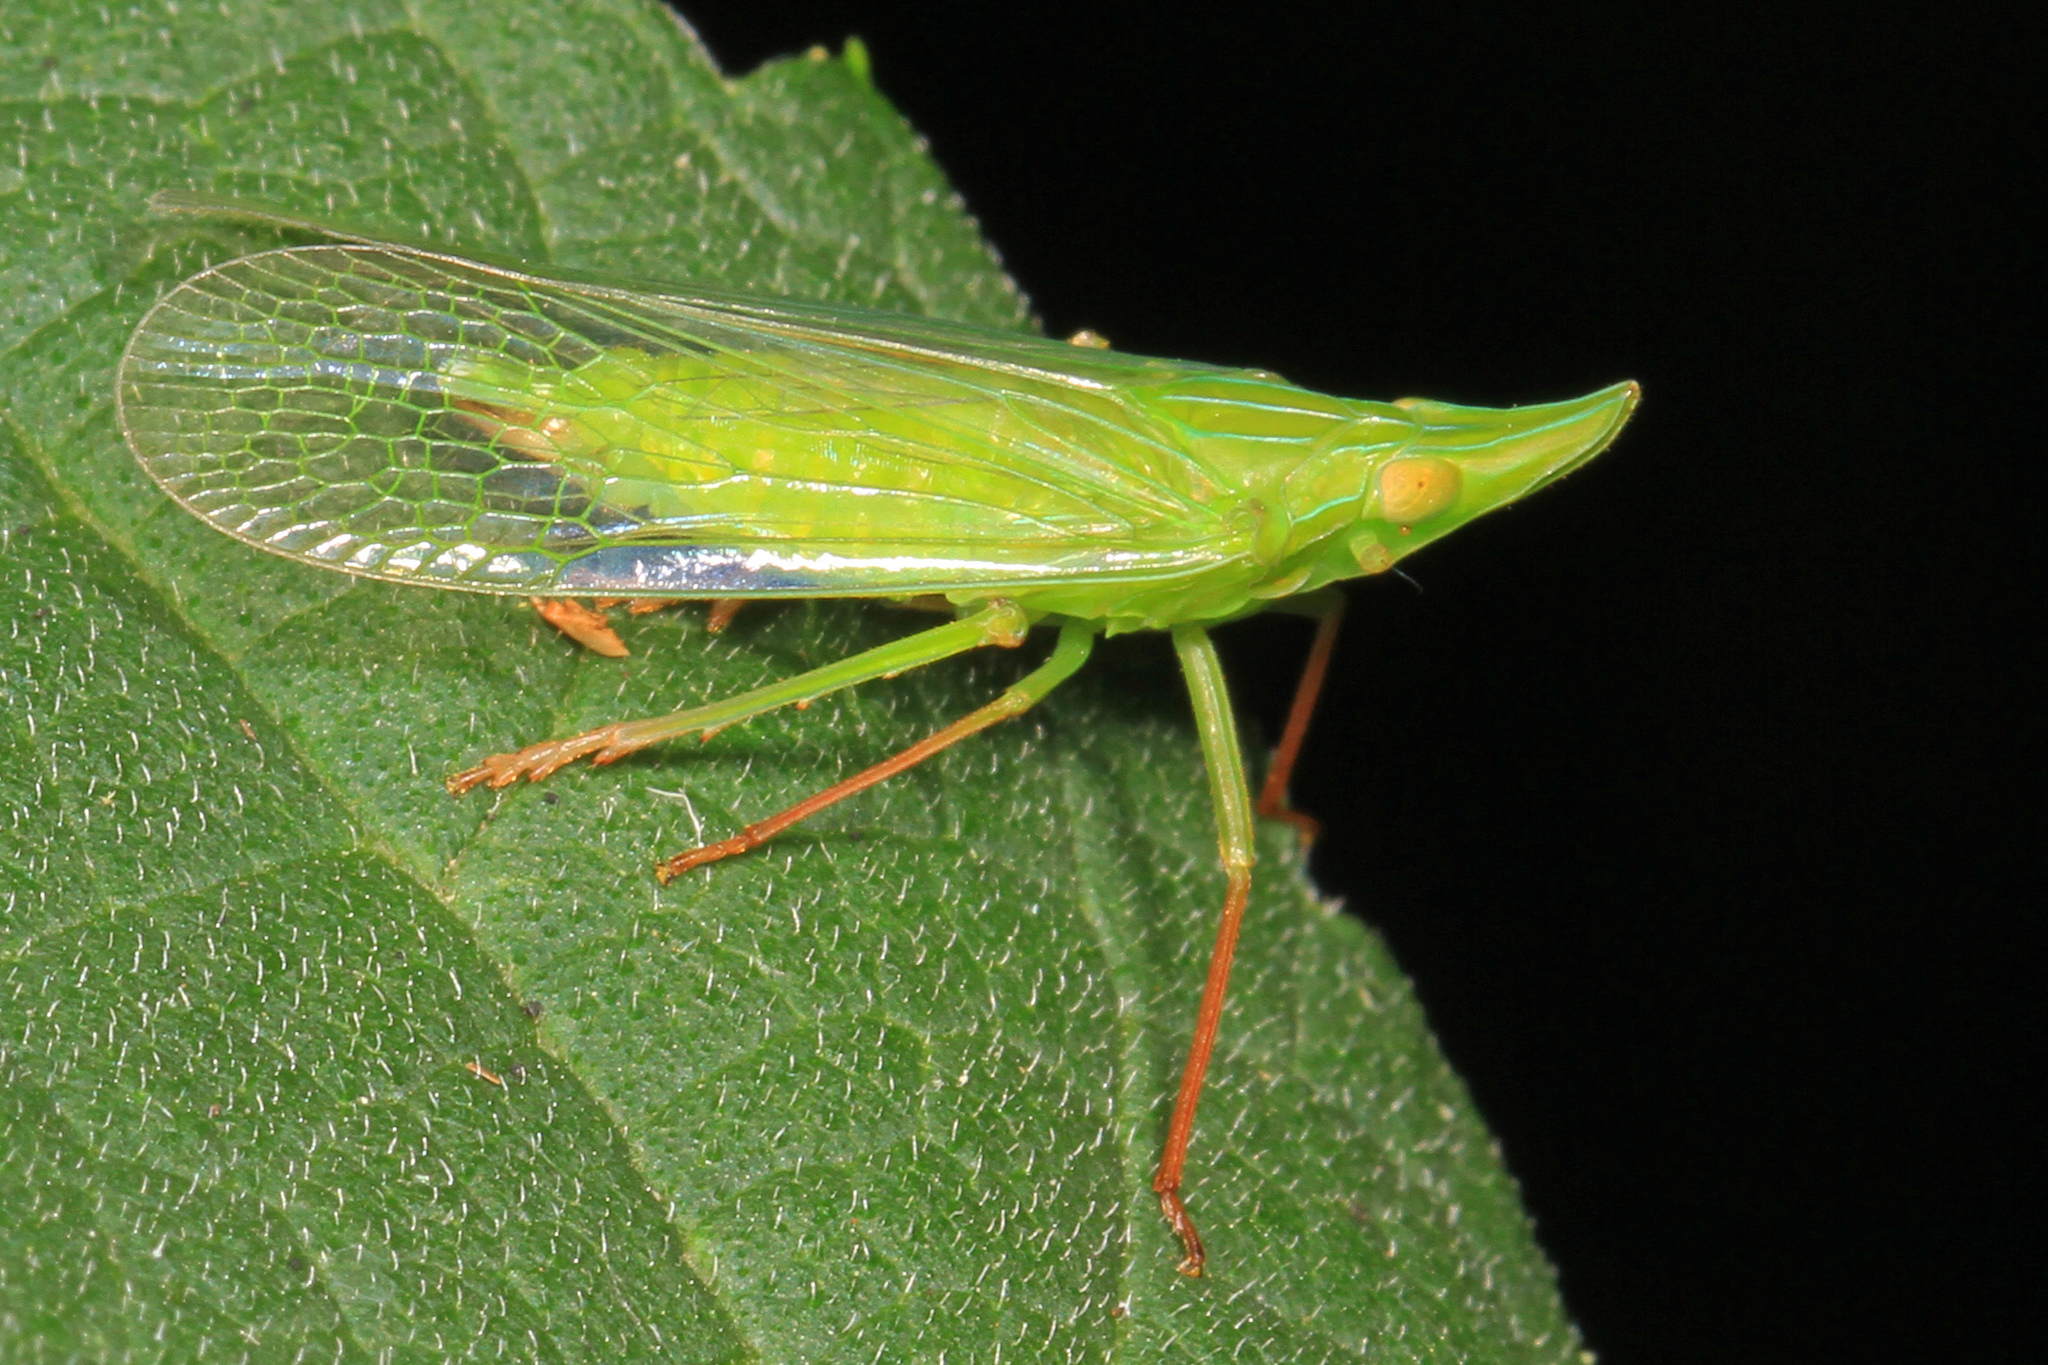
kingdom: Animalia
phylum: Arthropoda
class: Insecta
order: Hemiptera
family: Dictyopharidae
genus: Rhynchomitra
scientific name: Rhynchomitra microrhina
